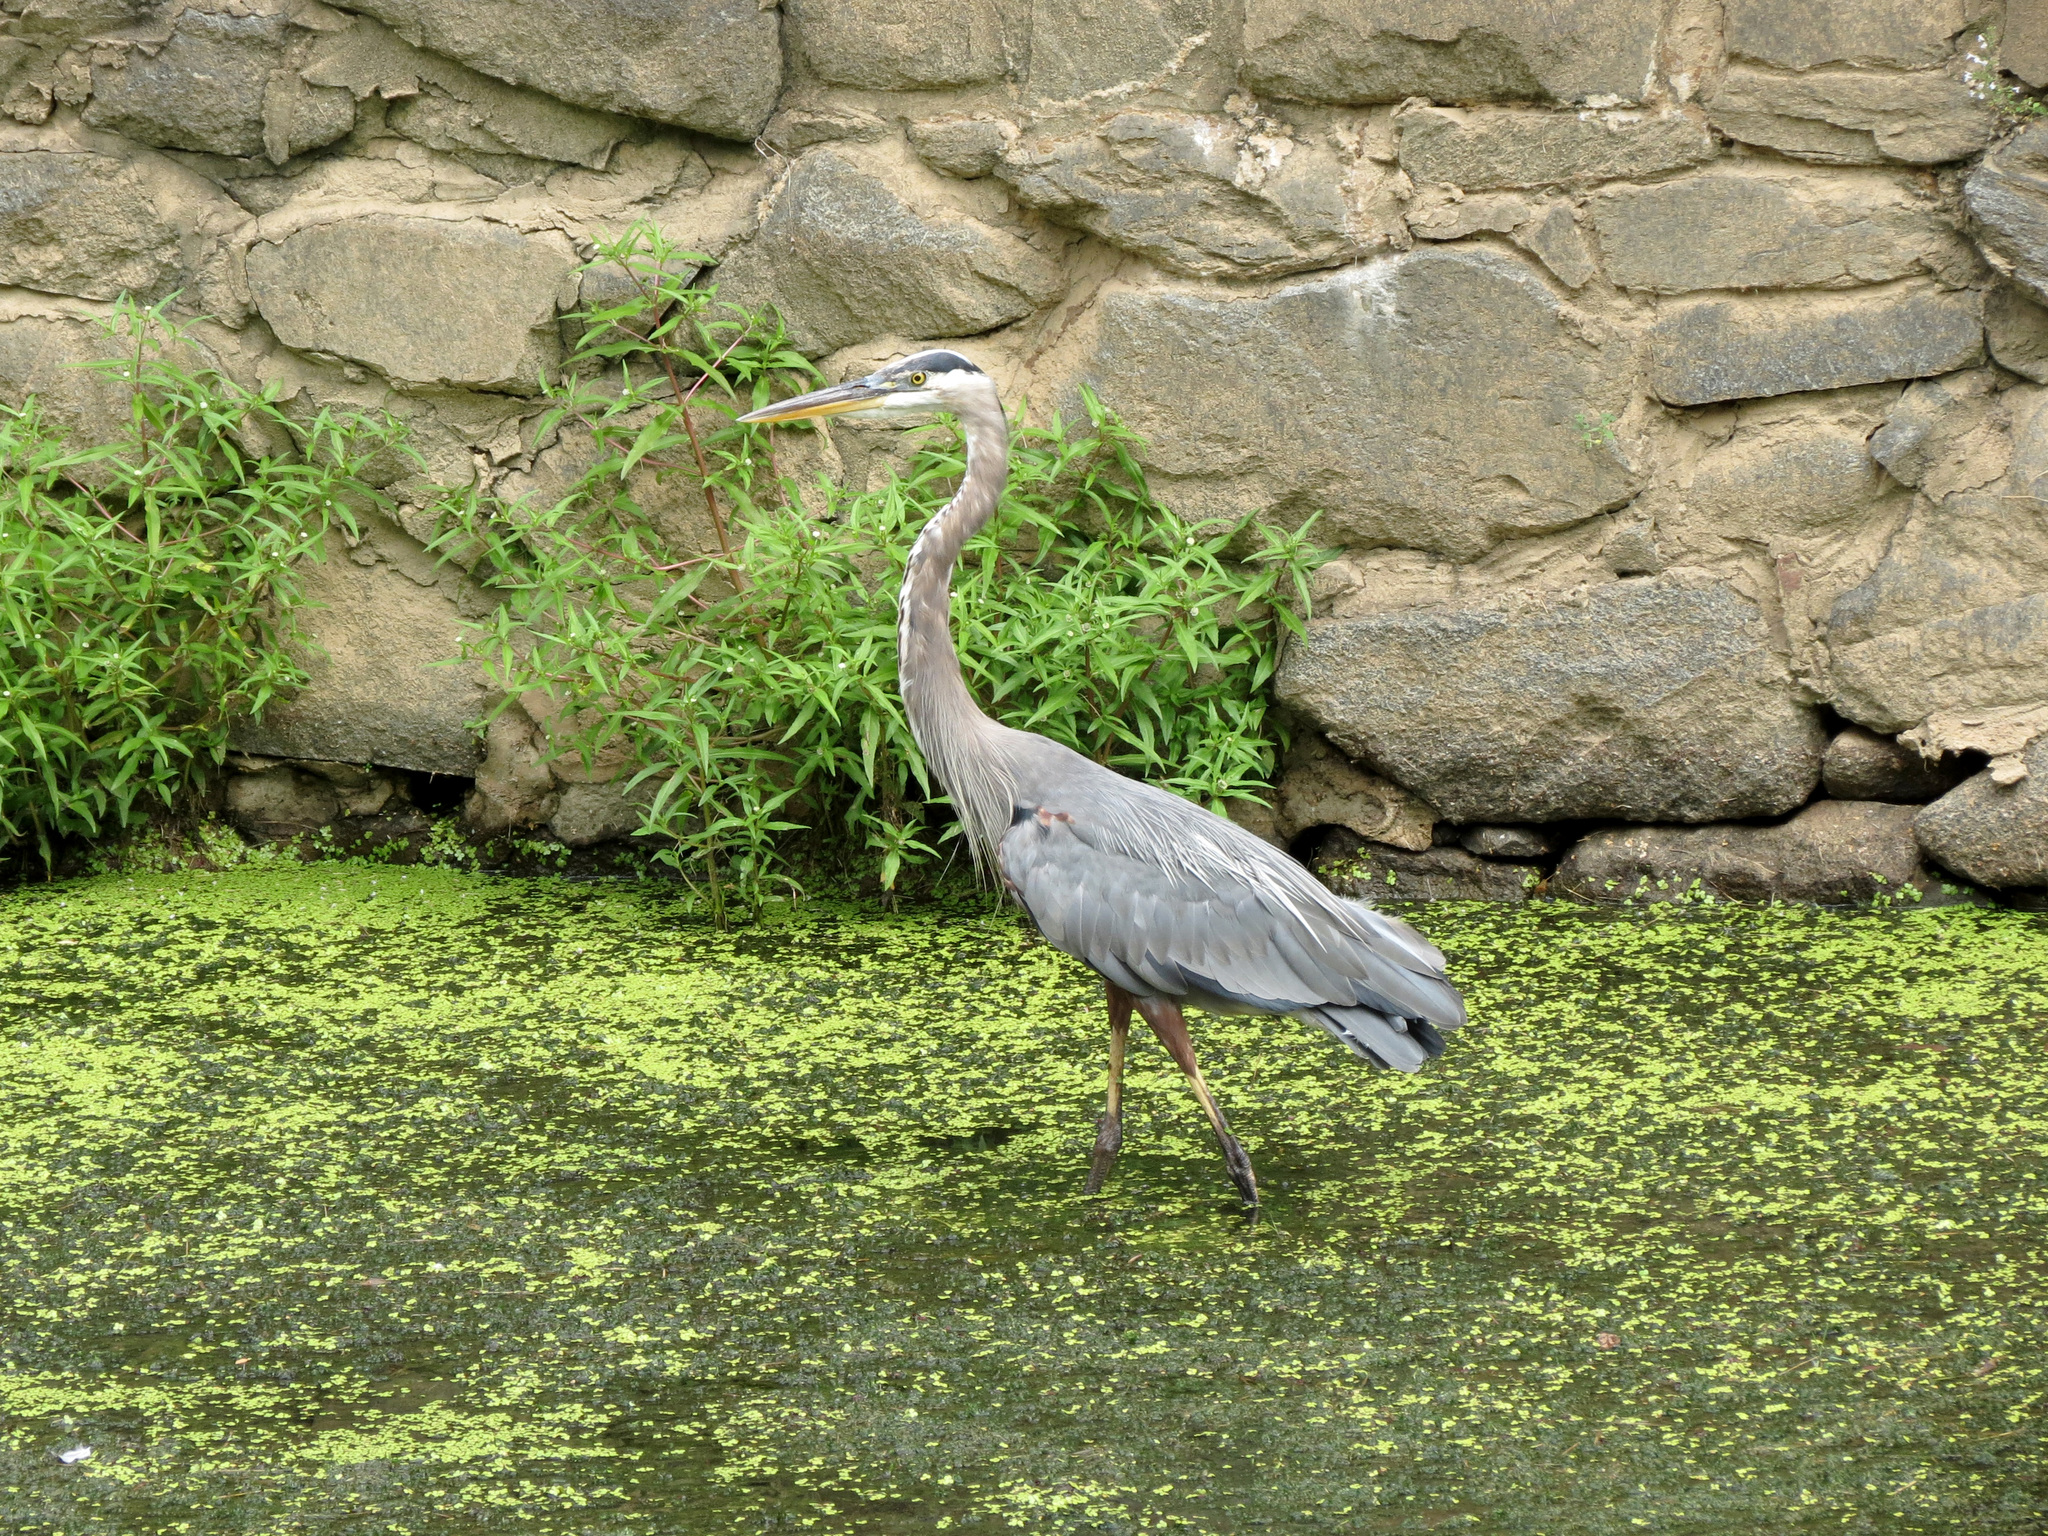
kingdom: Animalia
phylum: Chordata
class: Aves
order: Pelecaniformes
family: Ardeidae
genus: Ardea
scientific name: Ardea herodias
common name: Great blue heron
